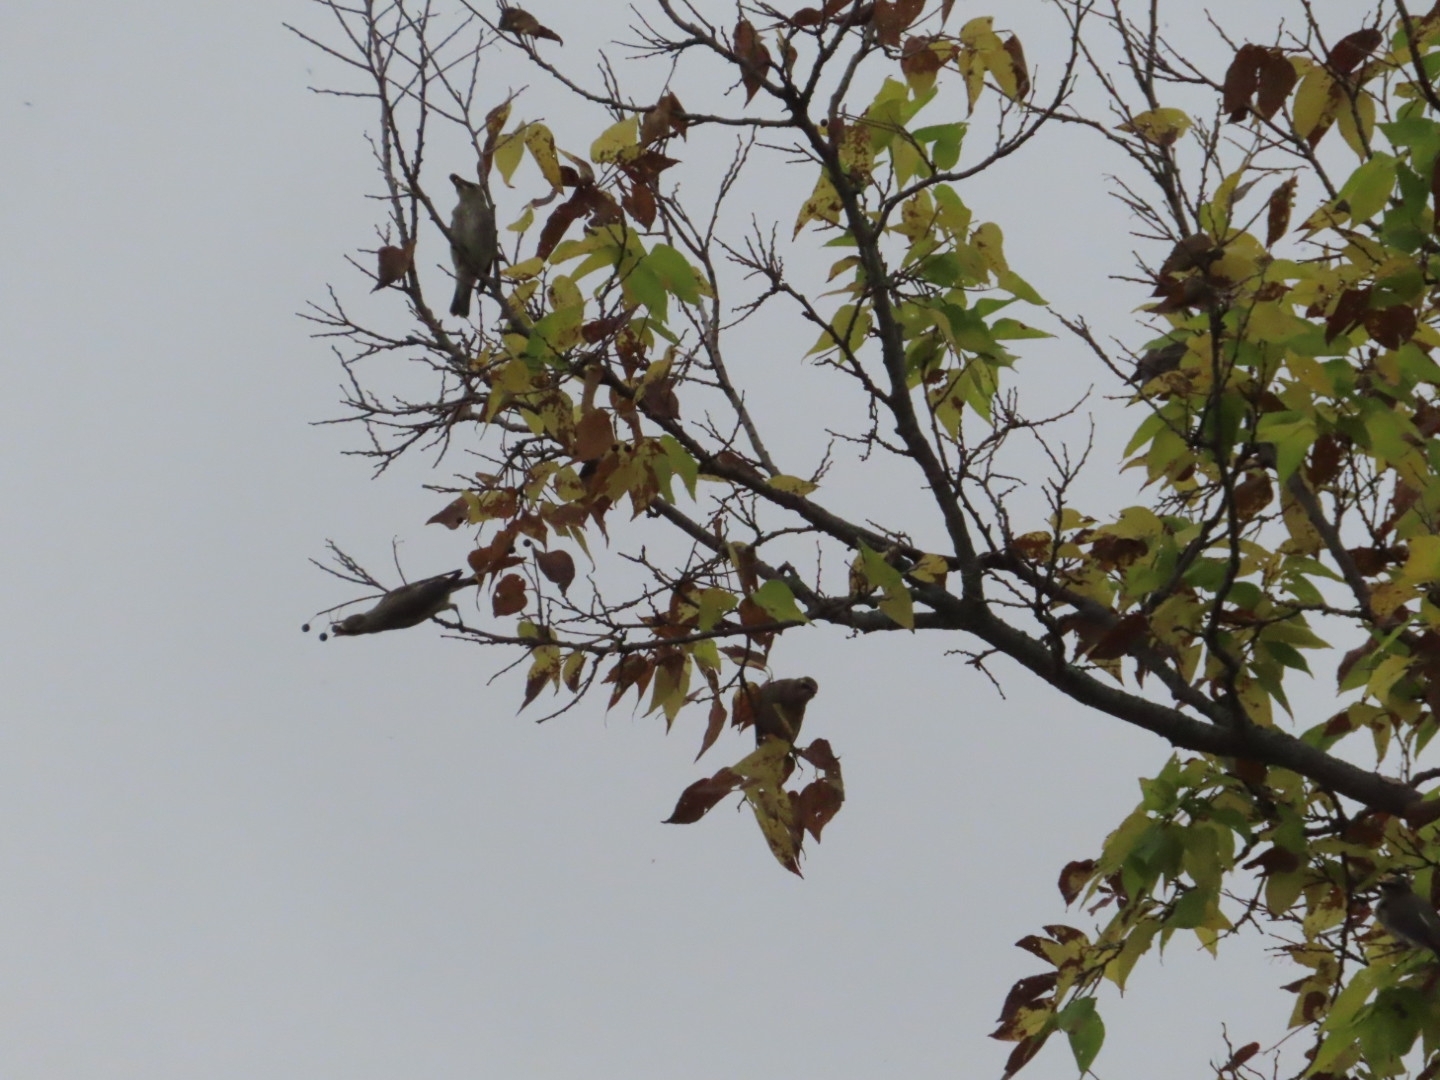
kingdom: Animalia
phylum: Chordata
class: Aves
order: Passeriformes
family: Bombycillidae
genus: Bombycilla
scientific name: Bombycilla cedrorum
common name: Cedar waxwing
